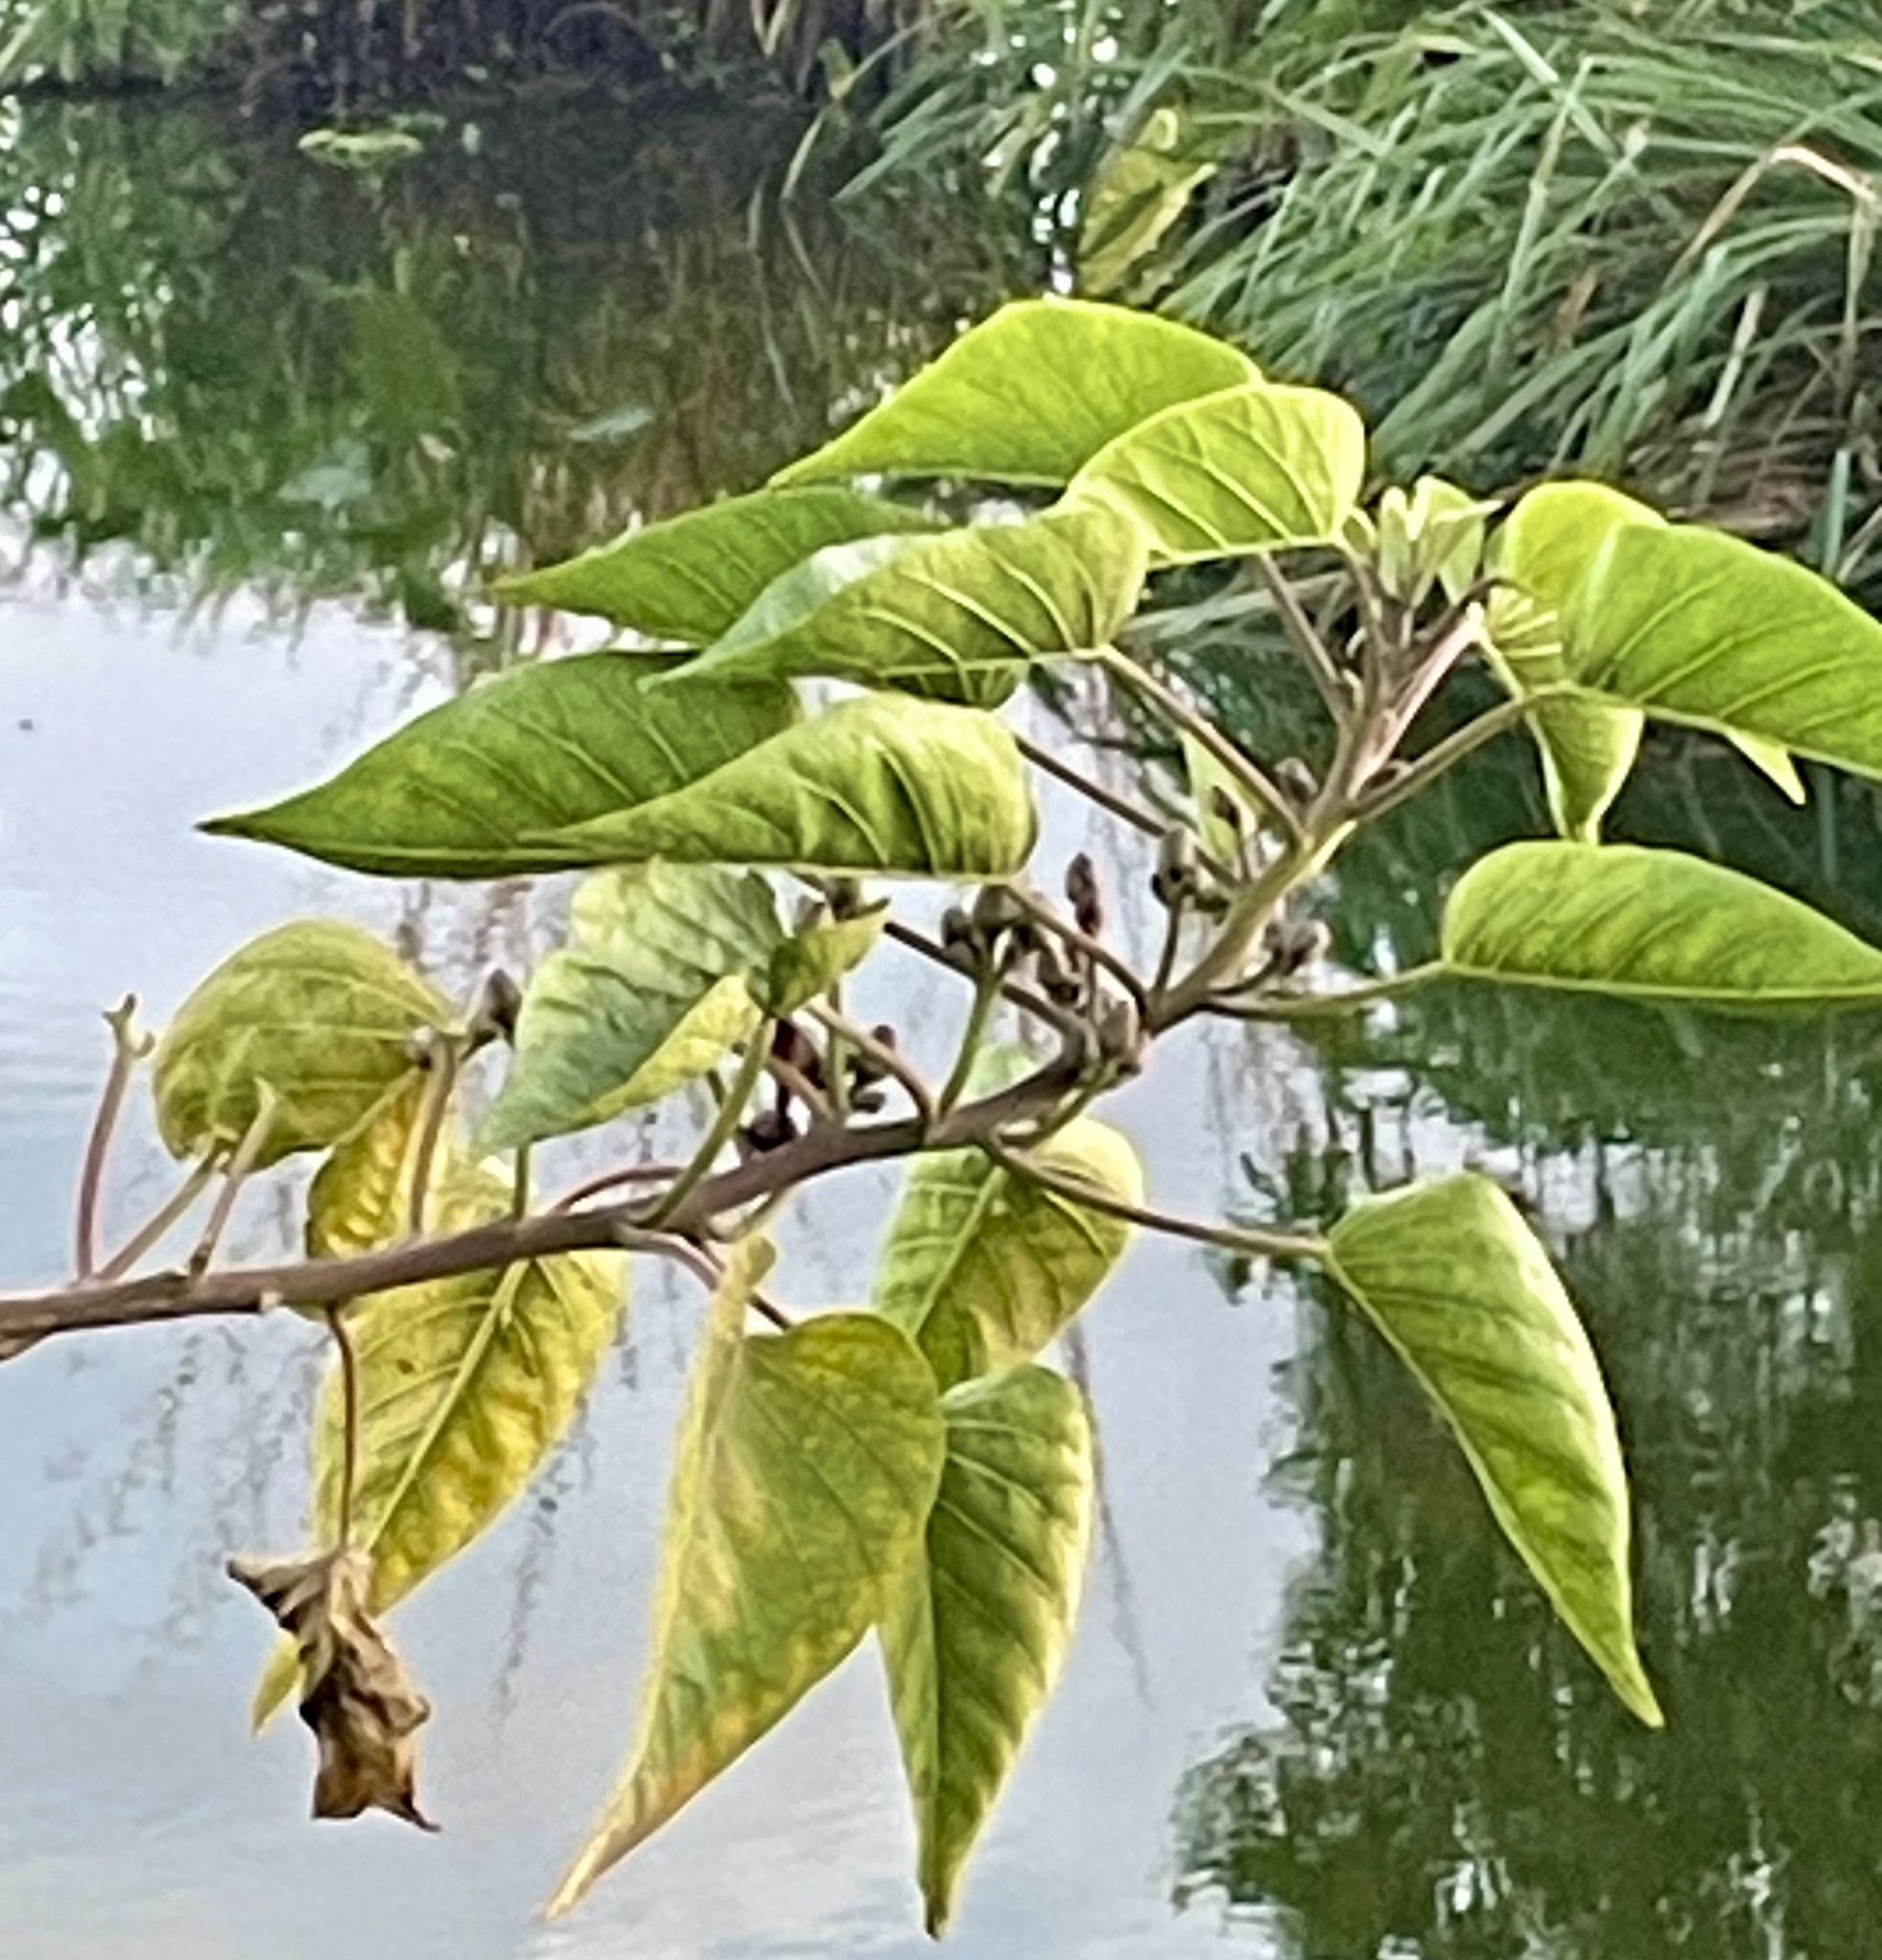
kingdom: Plantae
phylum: Tracheophyta
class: Magnoliopsida
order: Solanales
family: Convolvulaceae
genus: Ipomoea
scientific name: Ipomoea carnea
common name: Morning-glory
